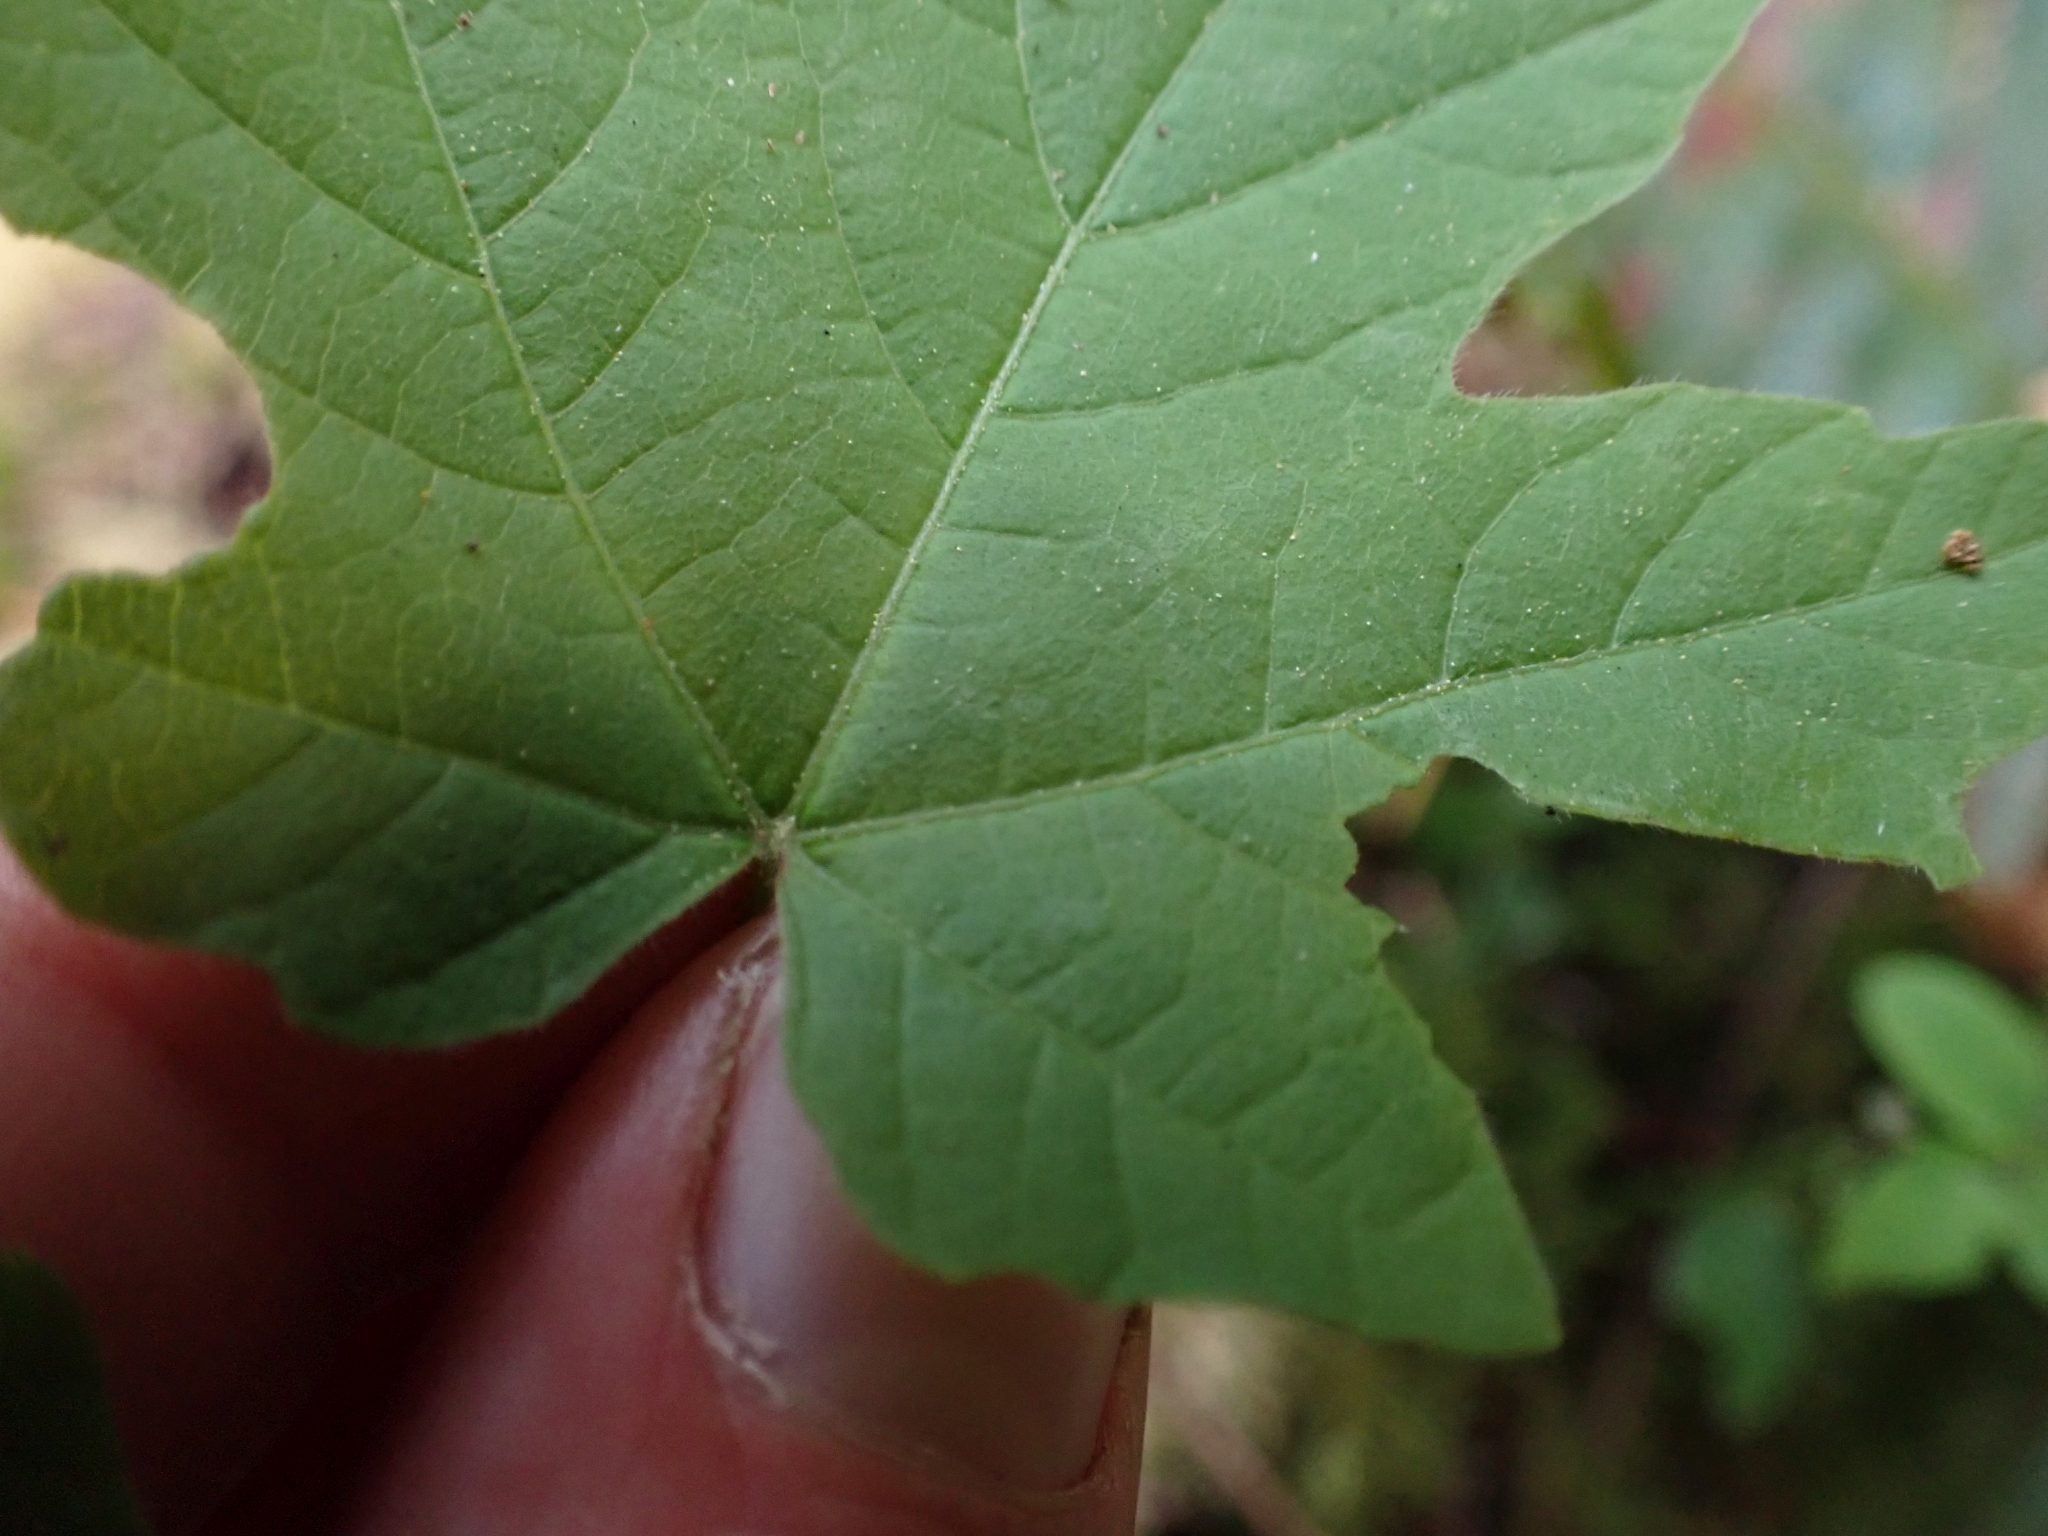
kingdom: Plantae
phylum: Tracheophyta
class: Magnoliopsida
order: Sapindales
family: Sapindaceae
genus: Acer
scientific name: Acer macrophyllum
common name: Oregon maple
